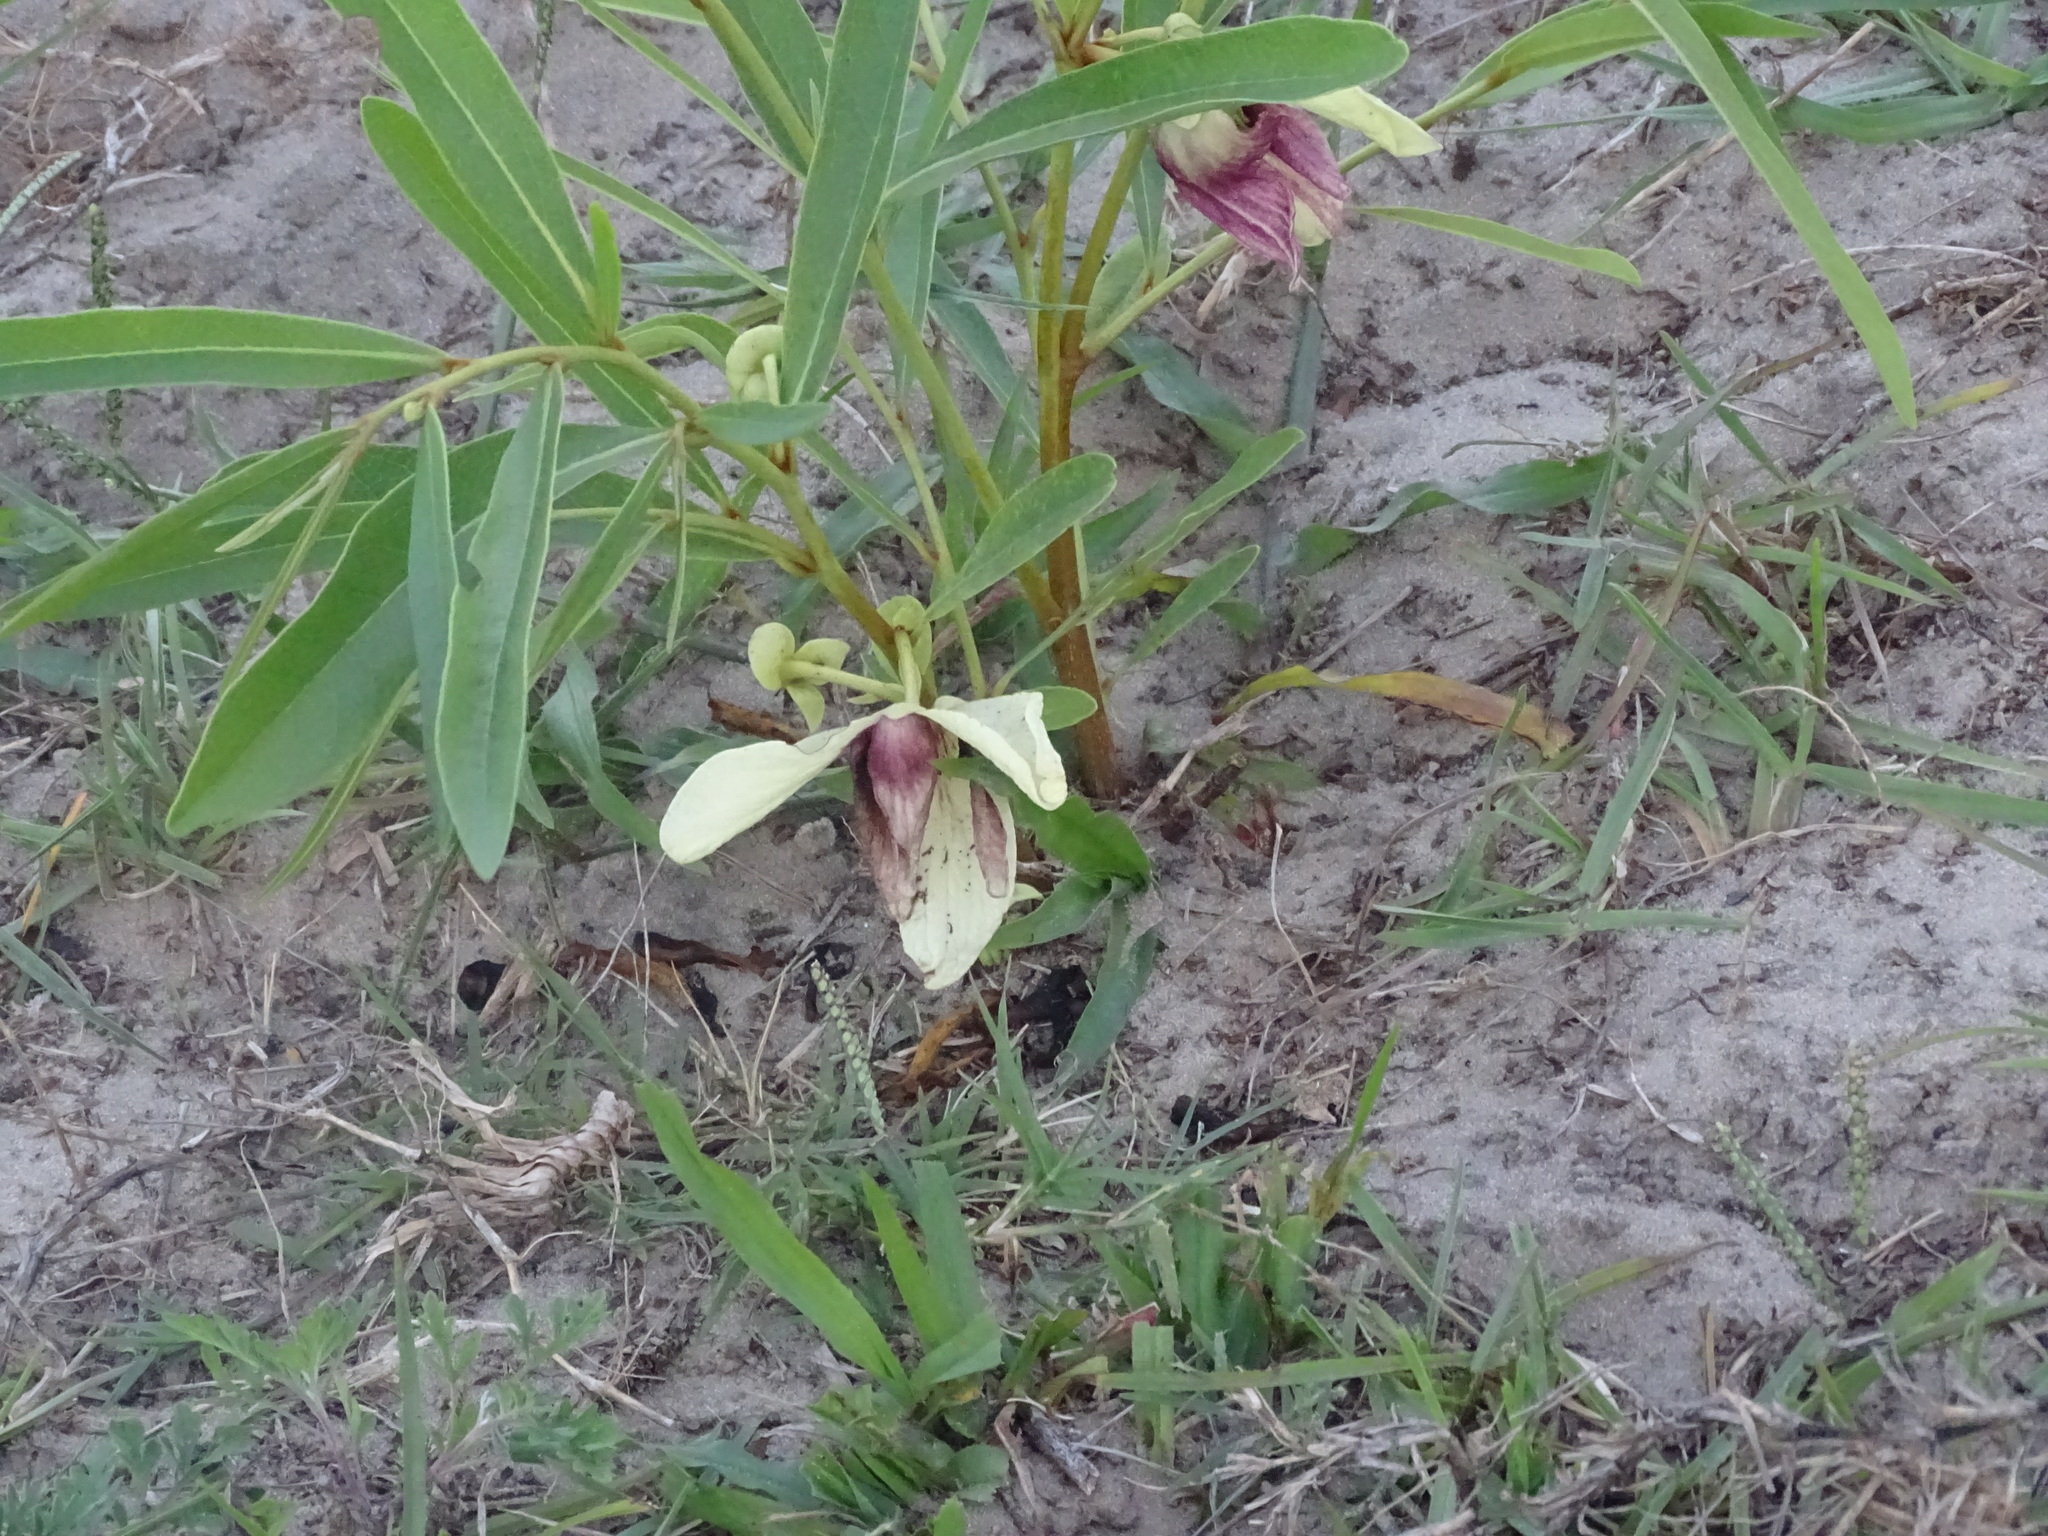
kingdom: Plantae
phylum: Tracheophyta
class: Magnoliopsida
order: Magnoliales
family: Annonaceae
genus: Asimina
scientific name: Asimina pygmaea
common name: Dwarf pawpaw
